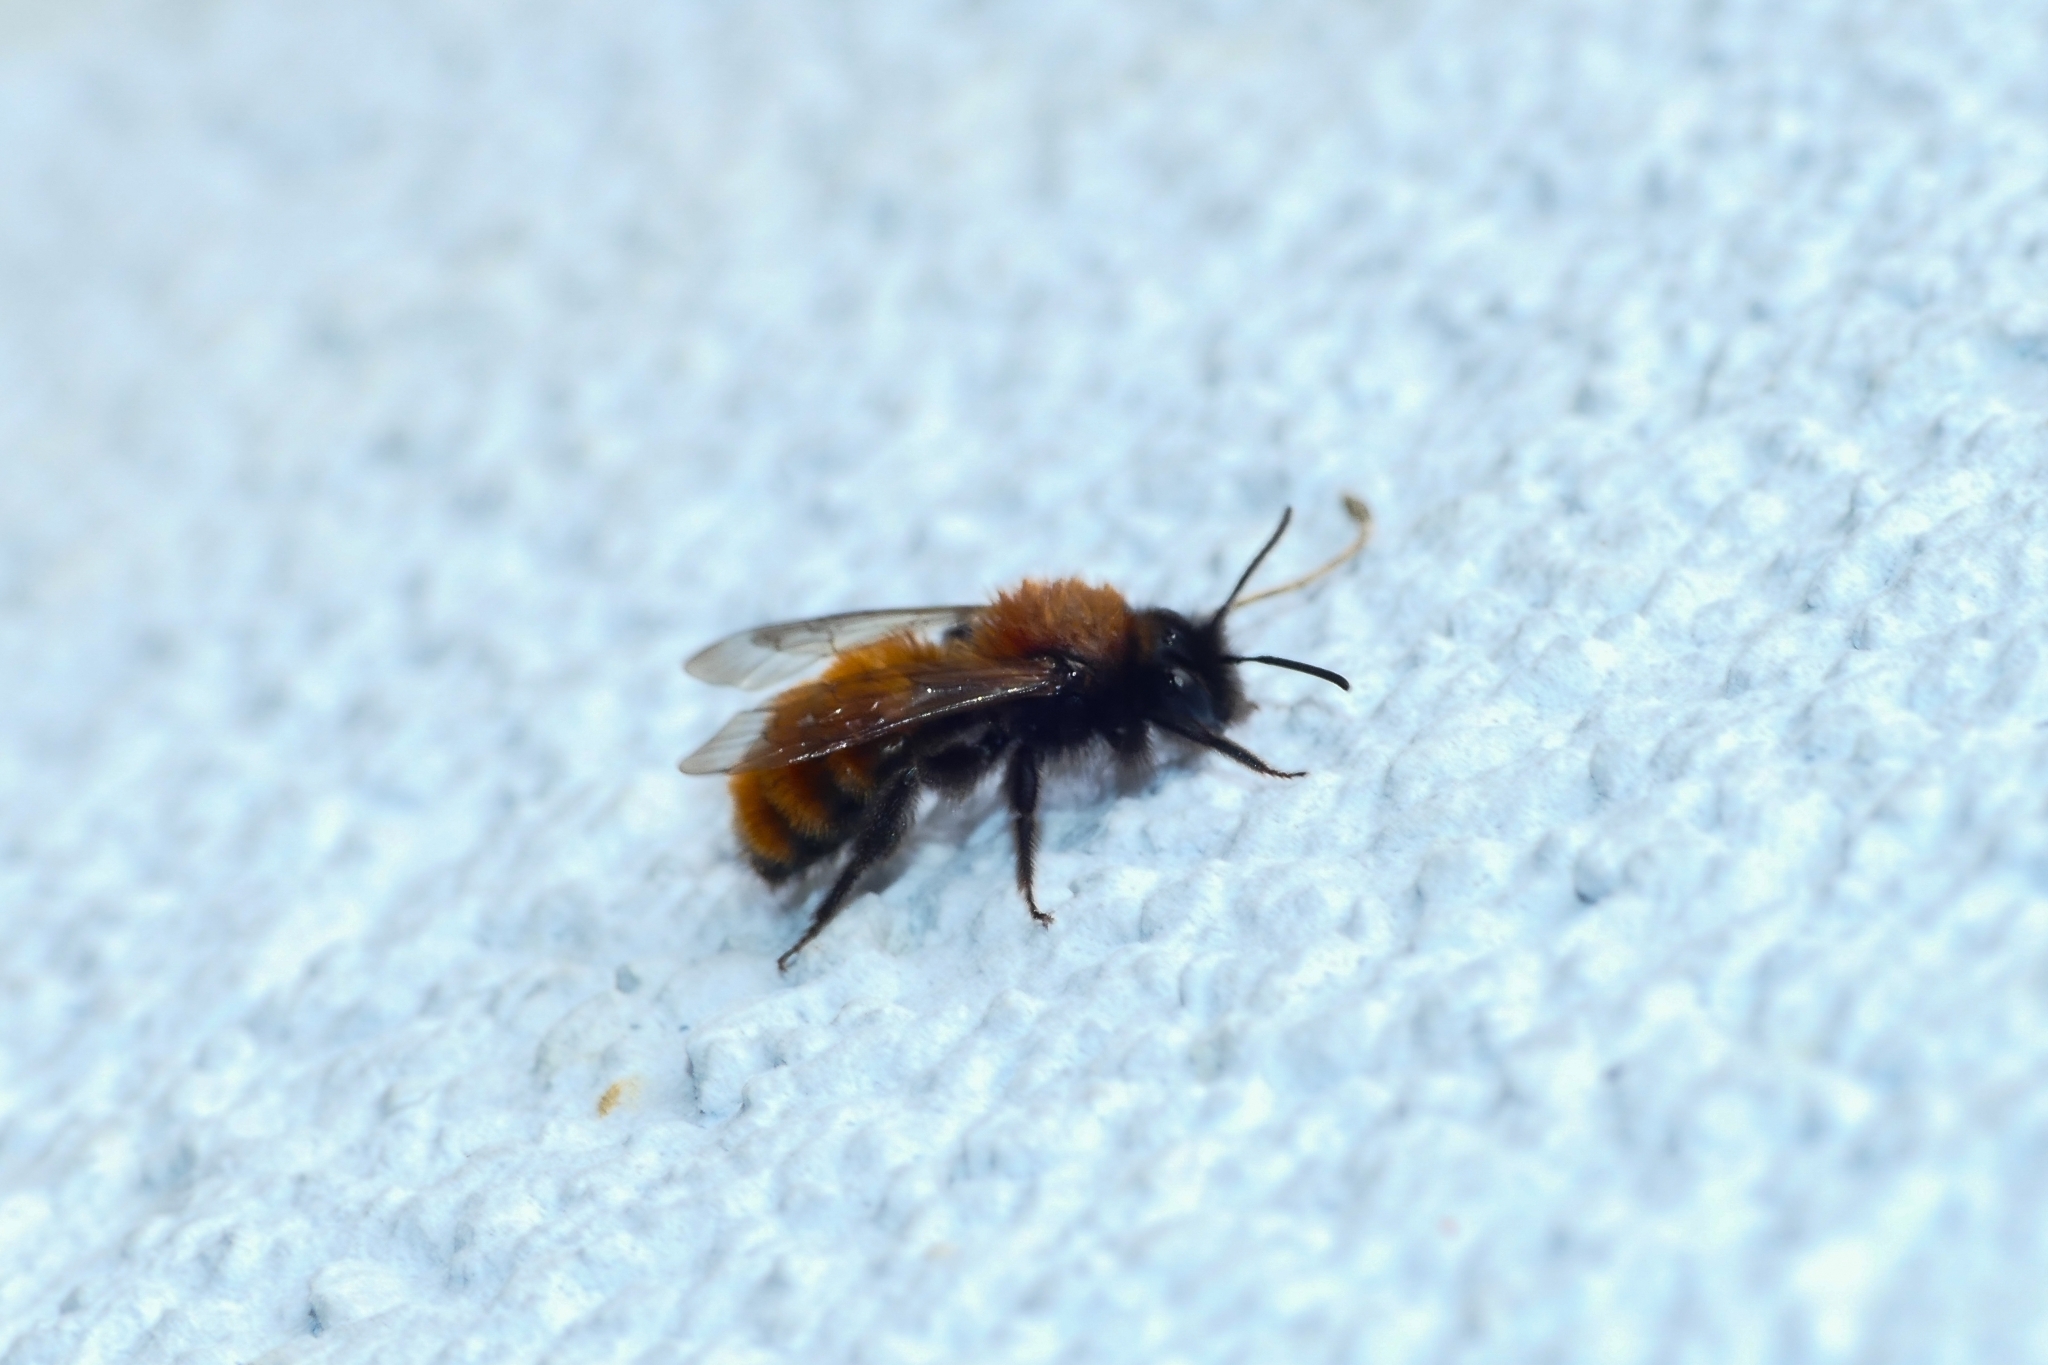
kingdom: Animalia
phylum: Arthropoda
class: Insecta
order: Hymenoptera
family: Andrenidae
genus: Andrena
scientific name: Andrena fulva
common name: Tawny mining bee
